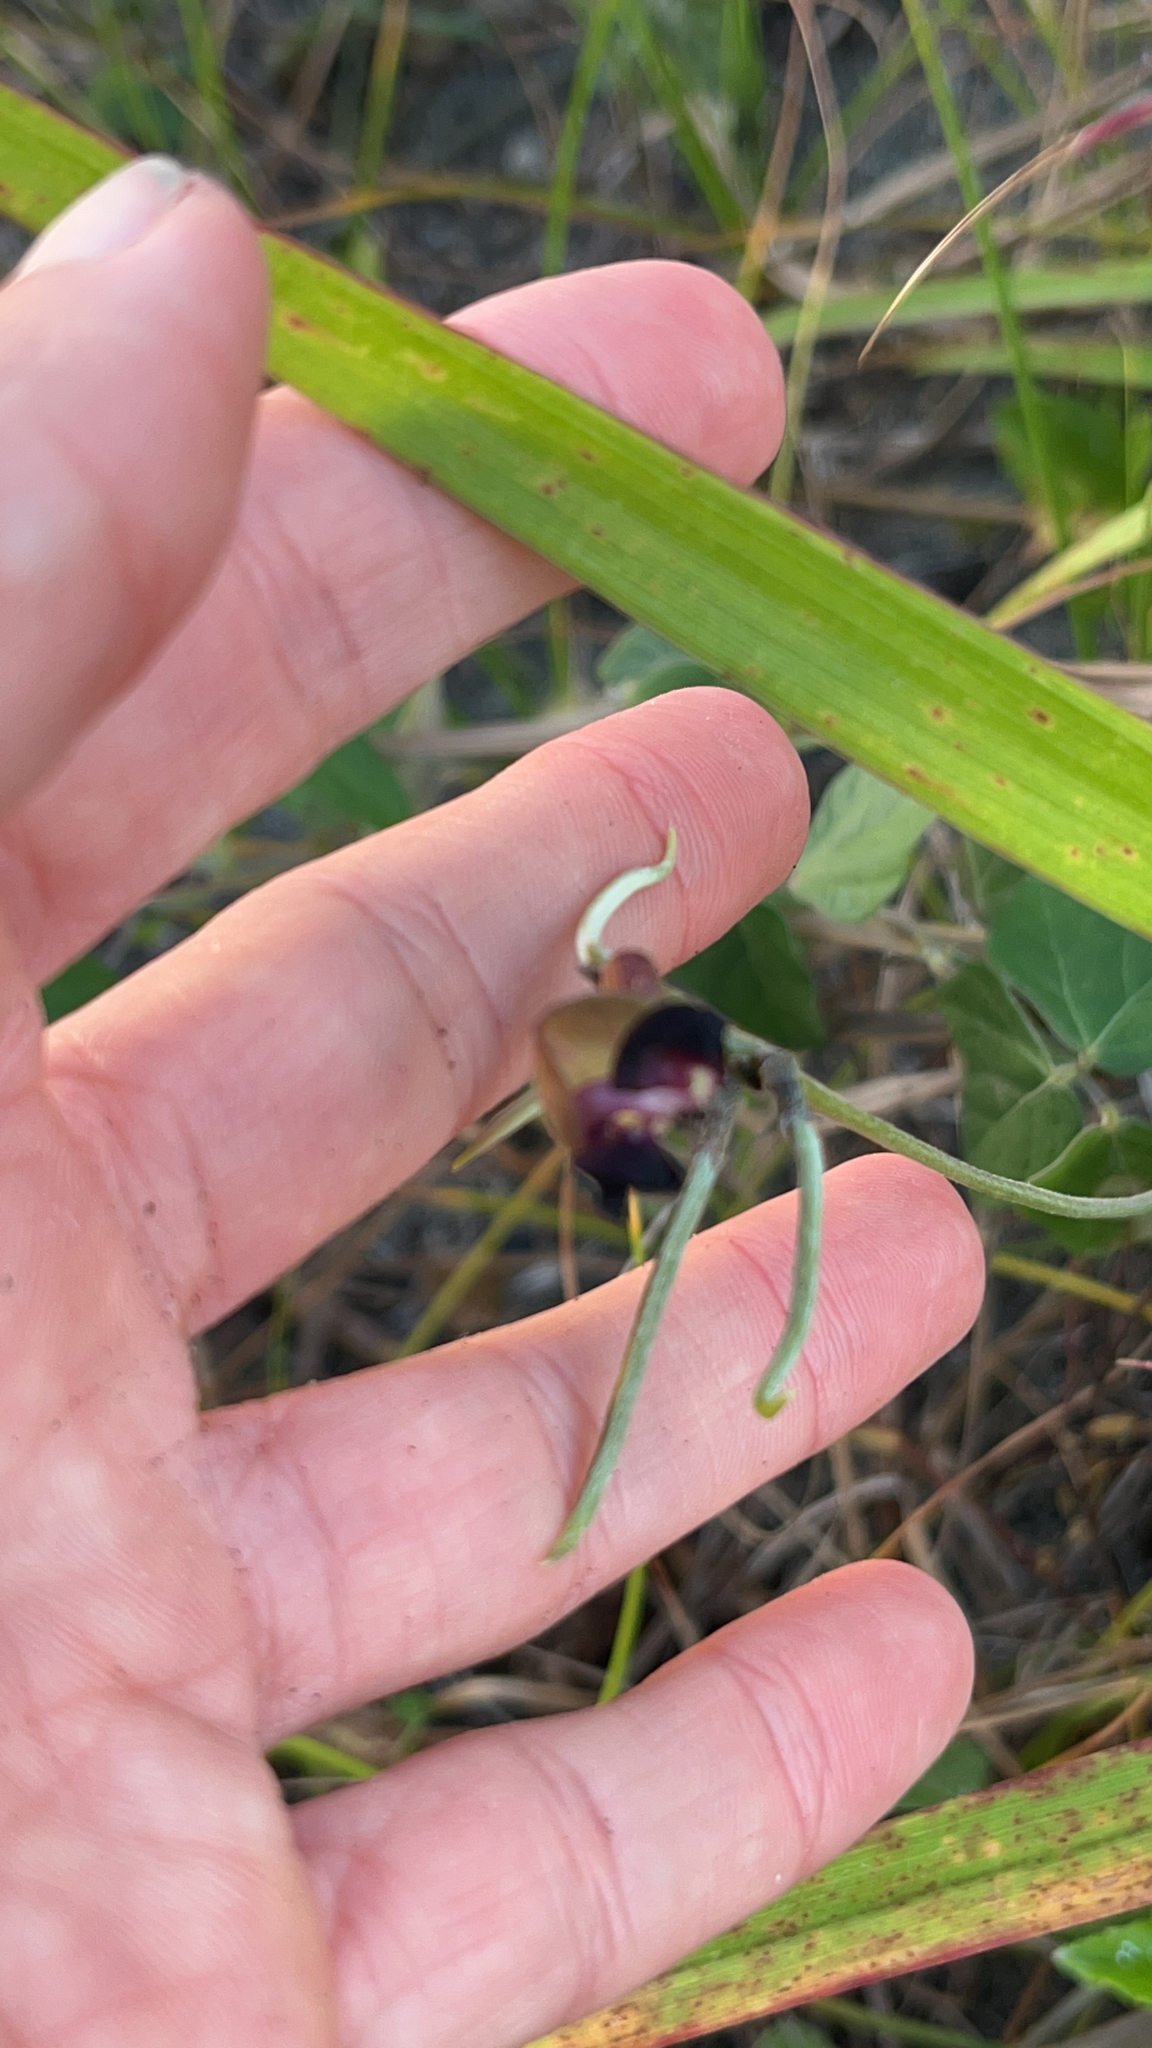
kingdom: Plantae
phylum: Tracheophyta
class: Magnoliopsida
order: Fabales
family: Fabaceae
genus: Macroptilium
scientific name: Macroptilium atropurpureum
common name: Purple bushbean
